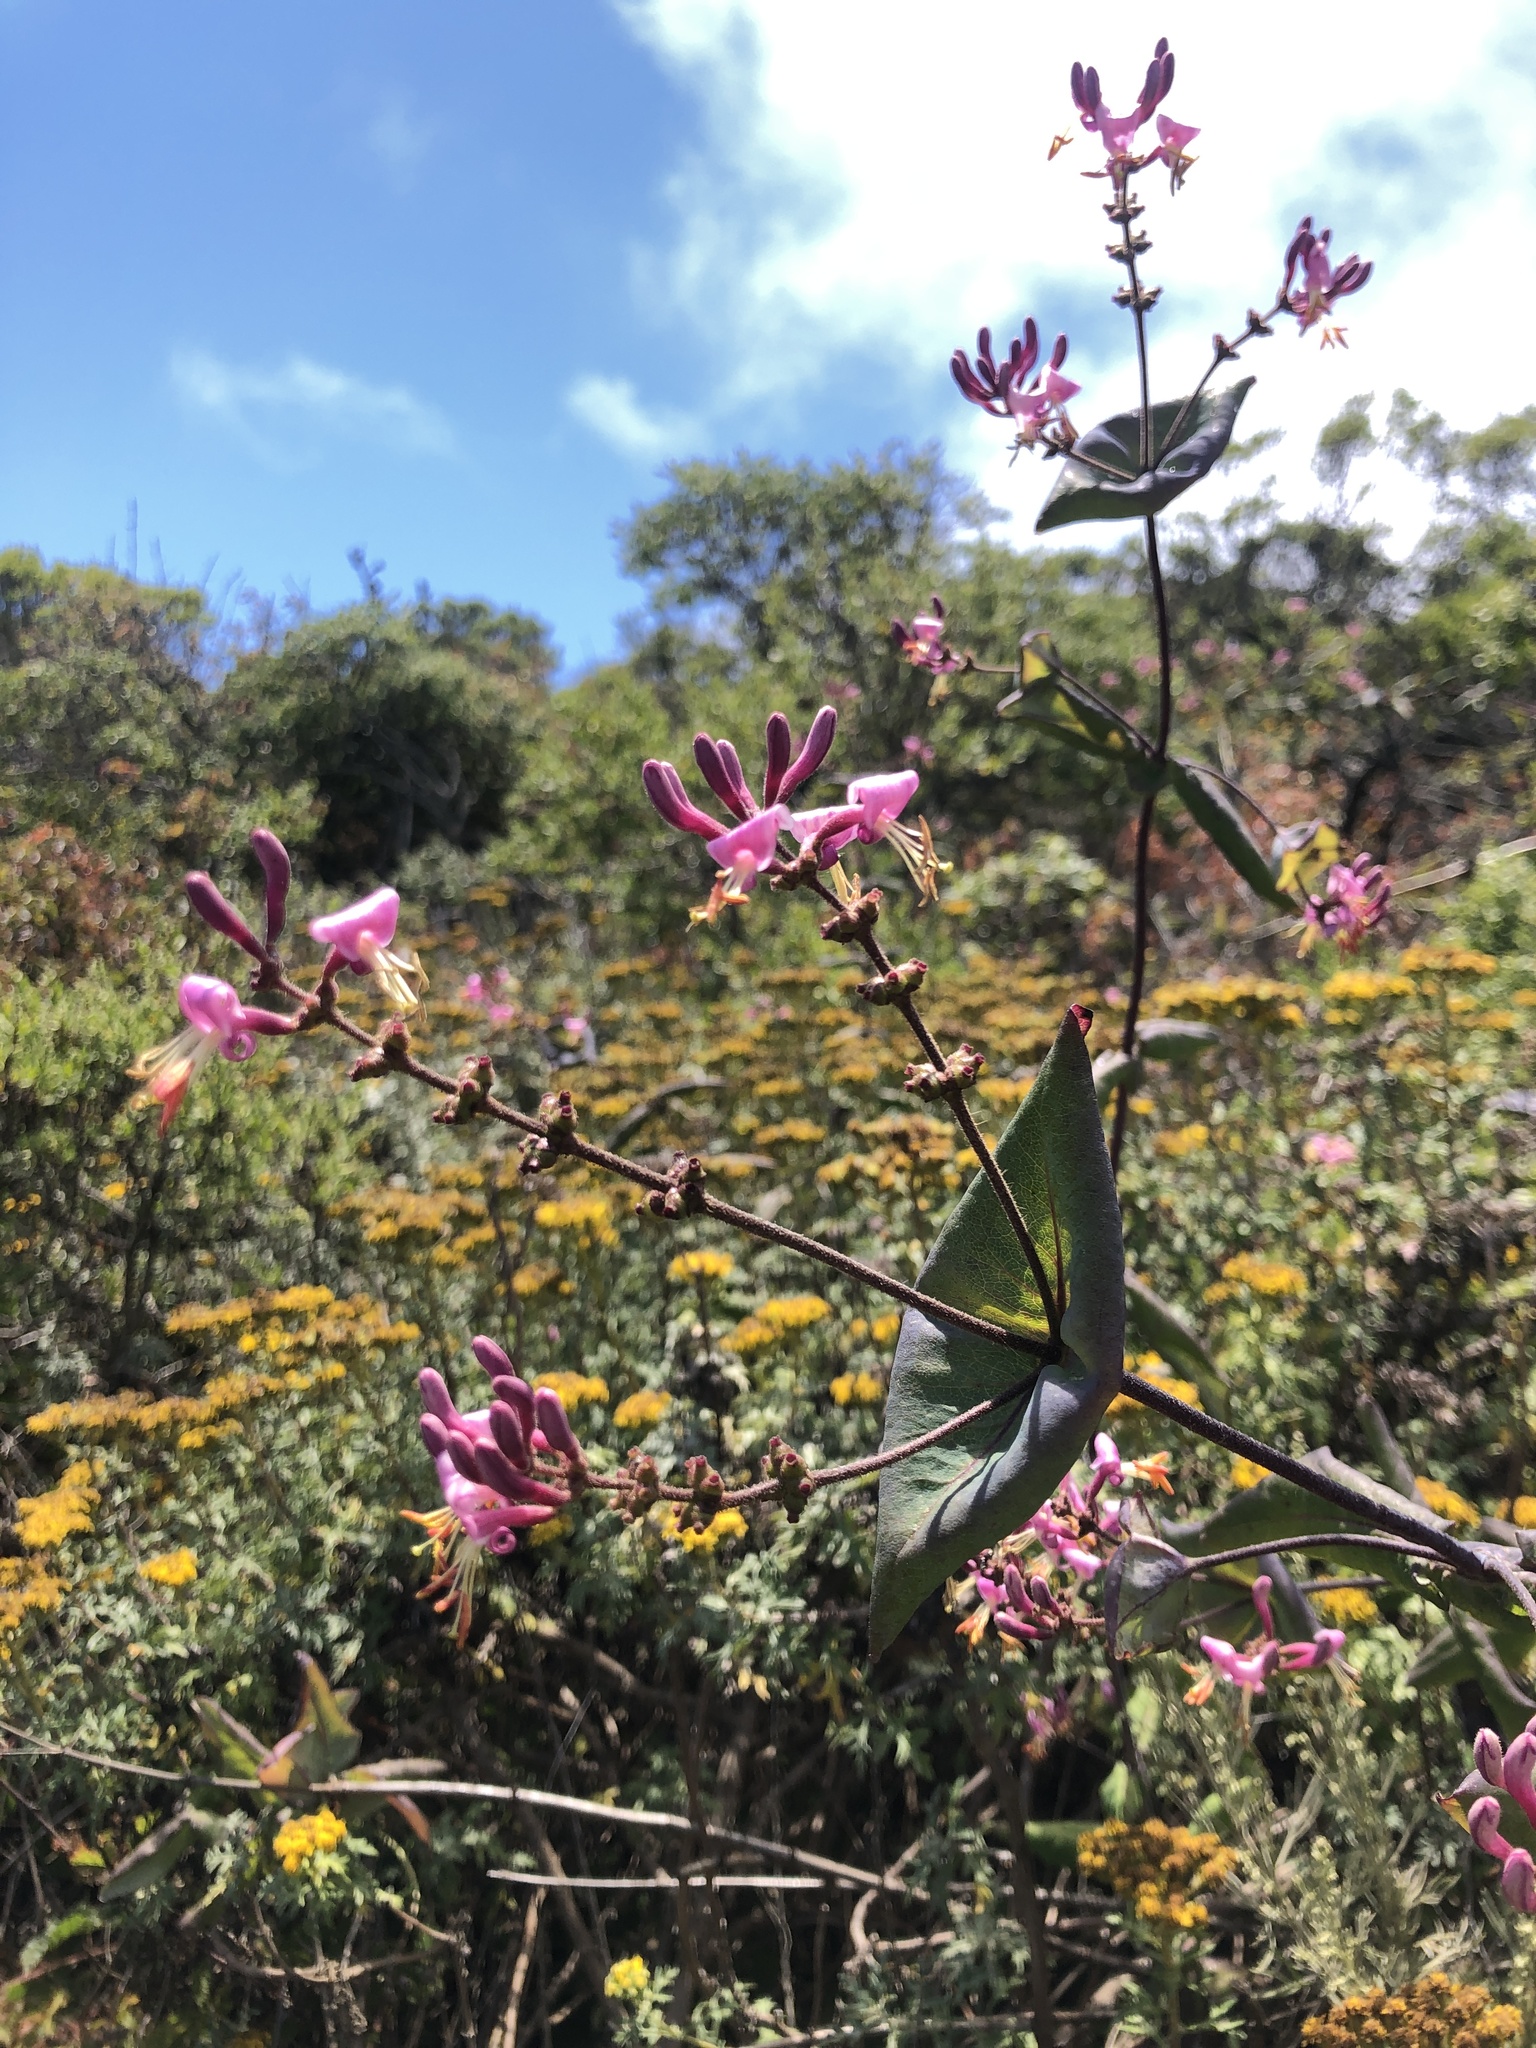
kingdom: Plantae
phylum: Tracheophyta
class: Magnoliopsida
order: Dipsacales
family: Caprifoliaceae
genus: Lonicera
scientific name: Lonicera hispidula
